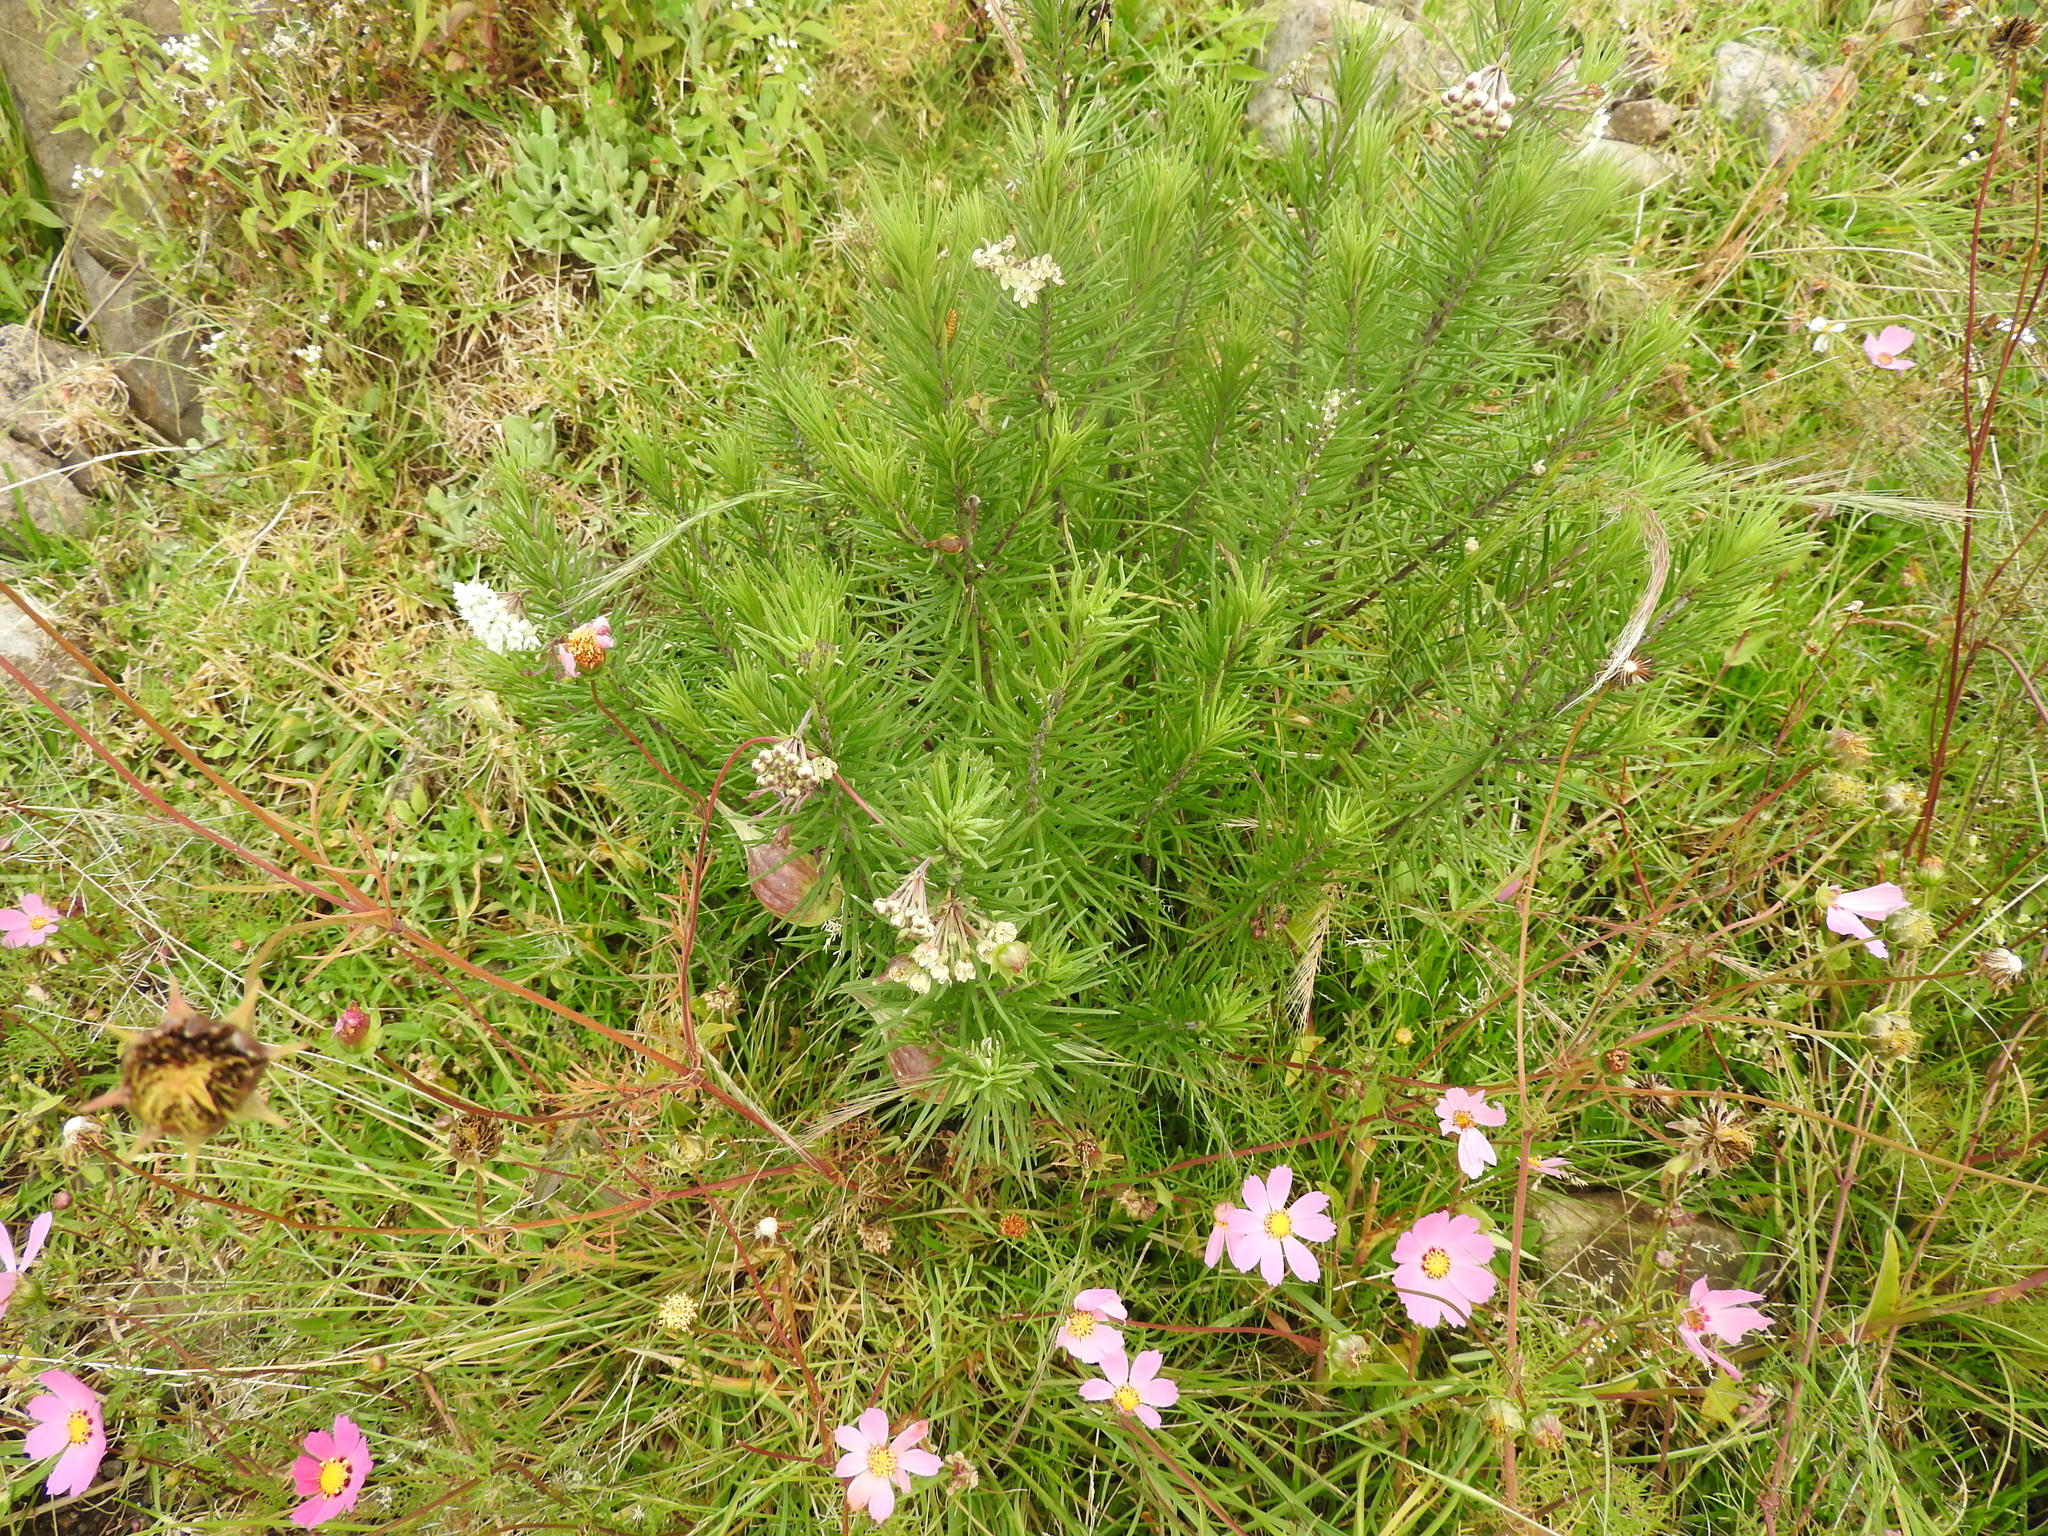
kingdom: Plantae
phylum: Tracheophyta
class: Magnoliopsida
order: Gentianales
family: Apocynaceae
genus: Asclepias
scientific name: Asclepias linaria
